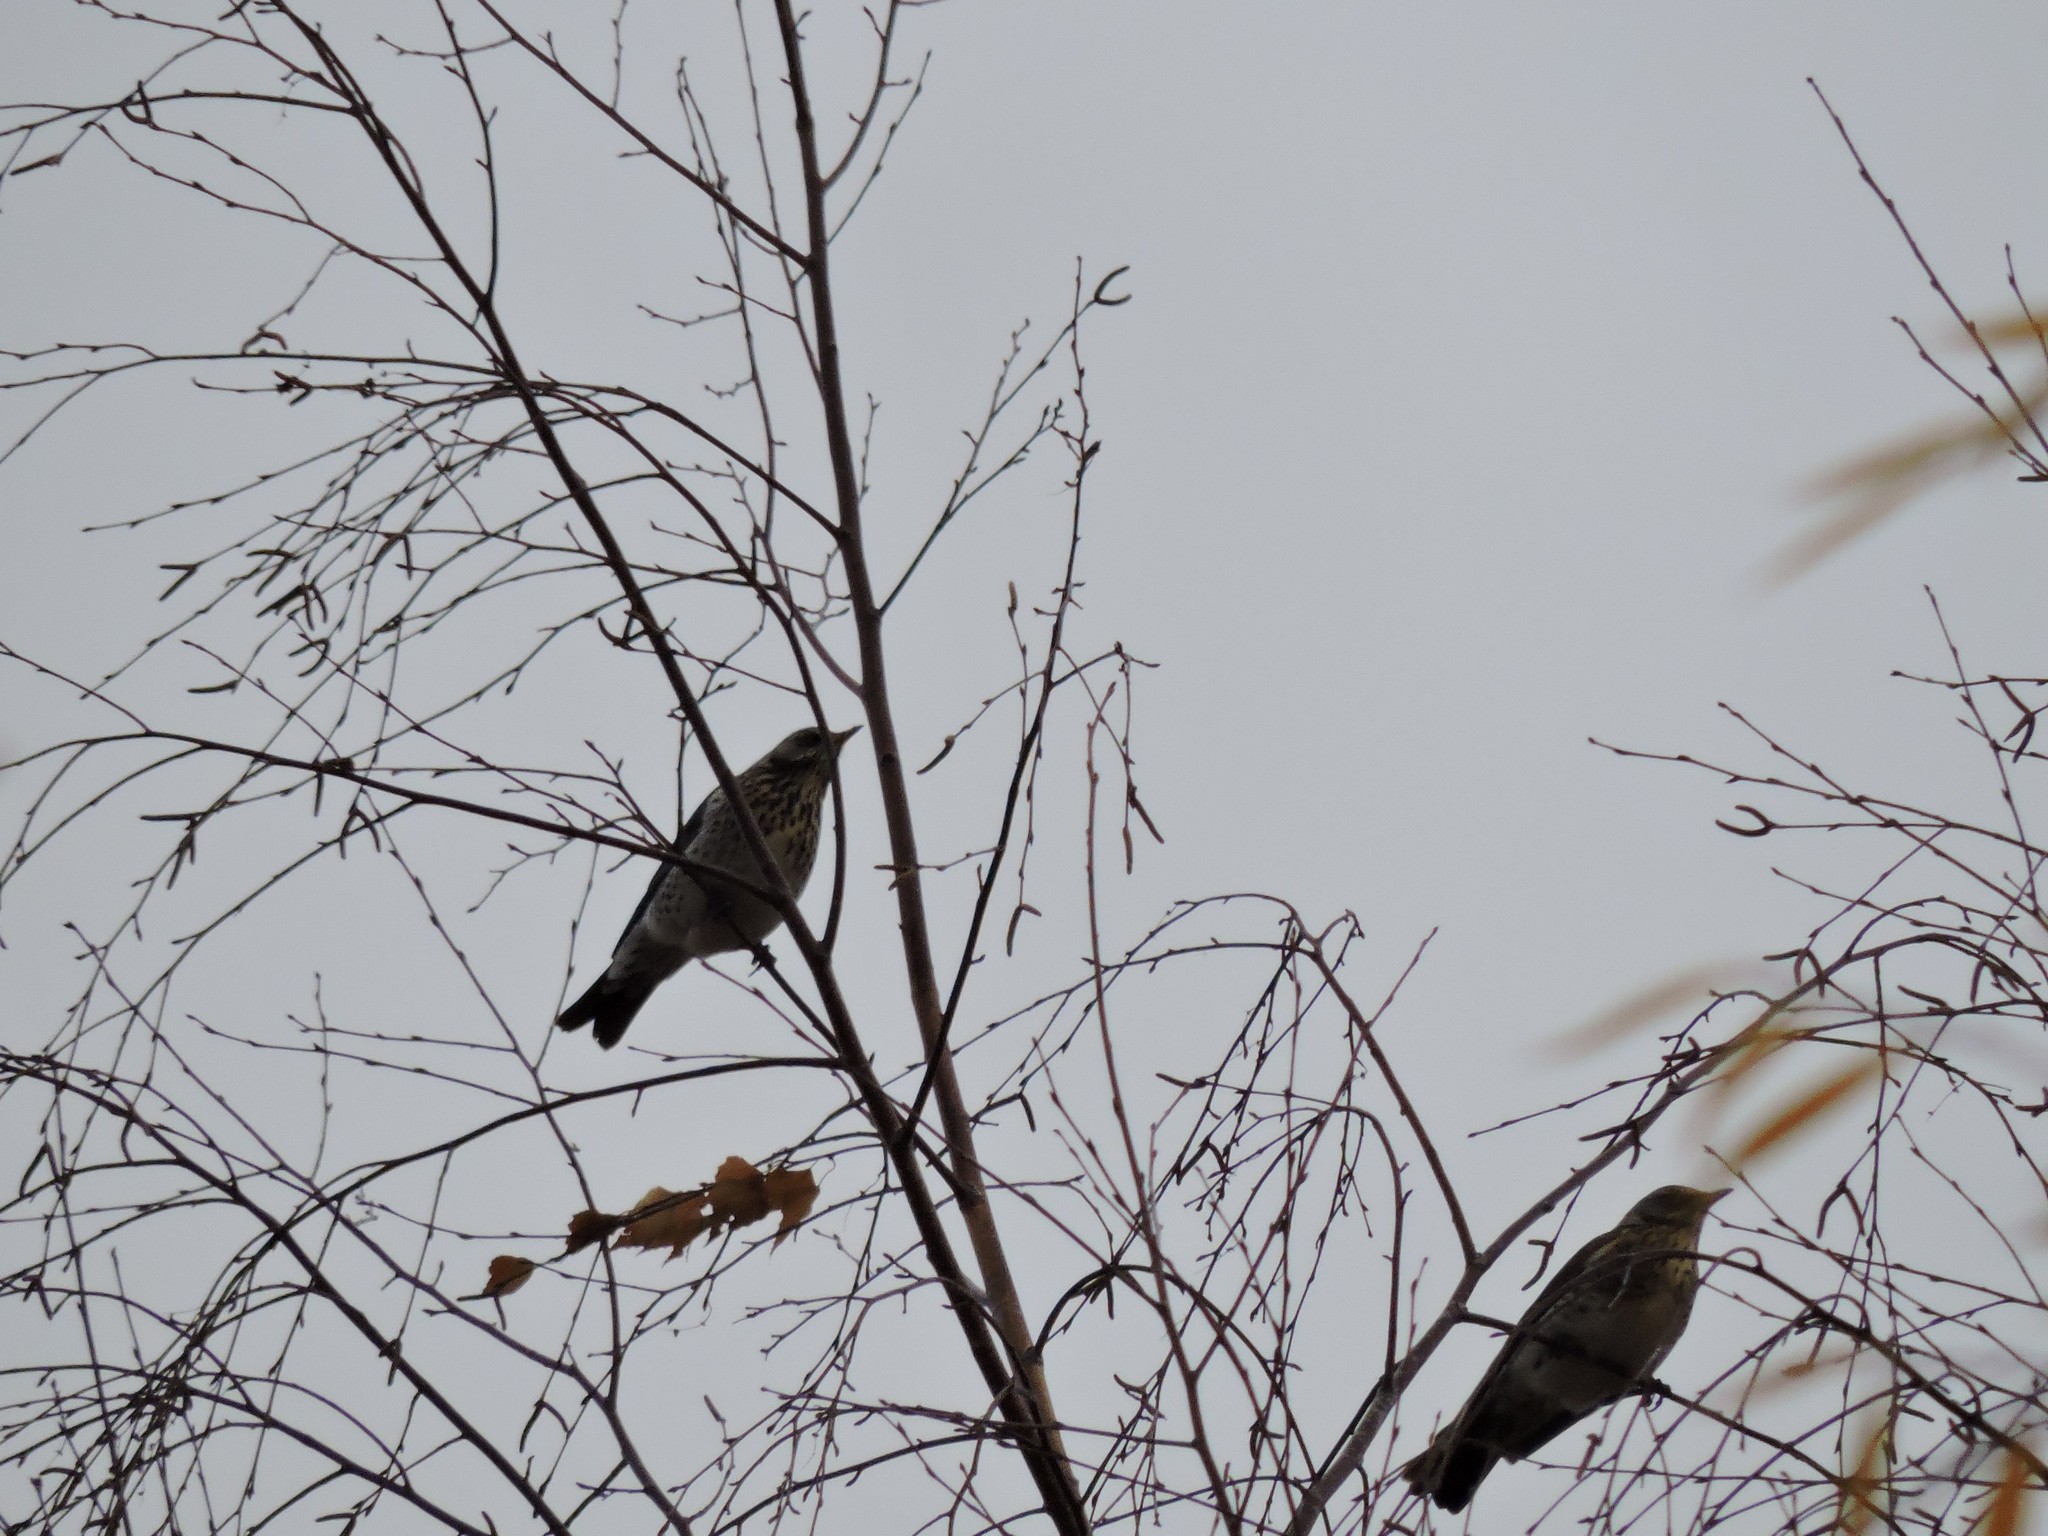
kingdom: Animalia
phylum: Chordata
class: Aves
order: Passeriformes
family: Turdidae
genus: Turdus
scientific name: Turdus pilaris
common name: Fieldfare
